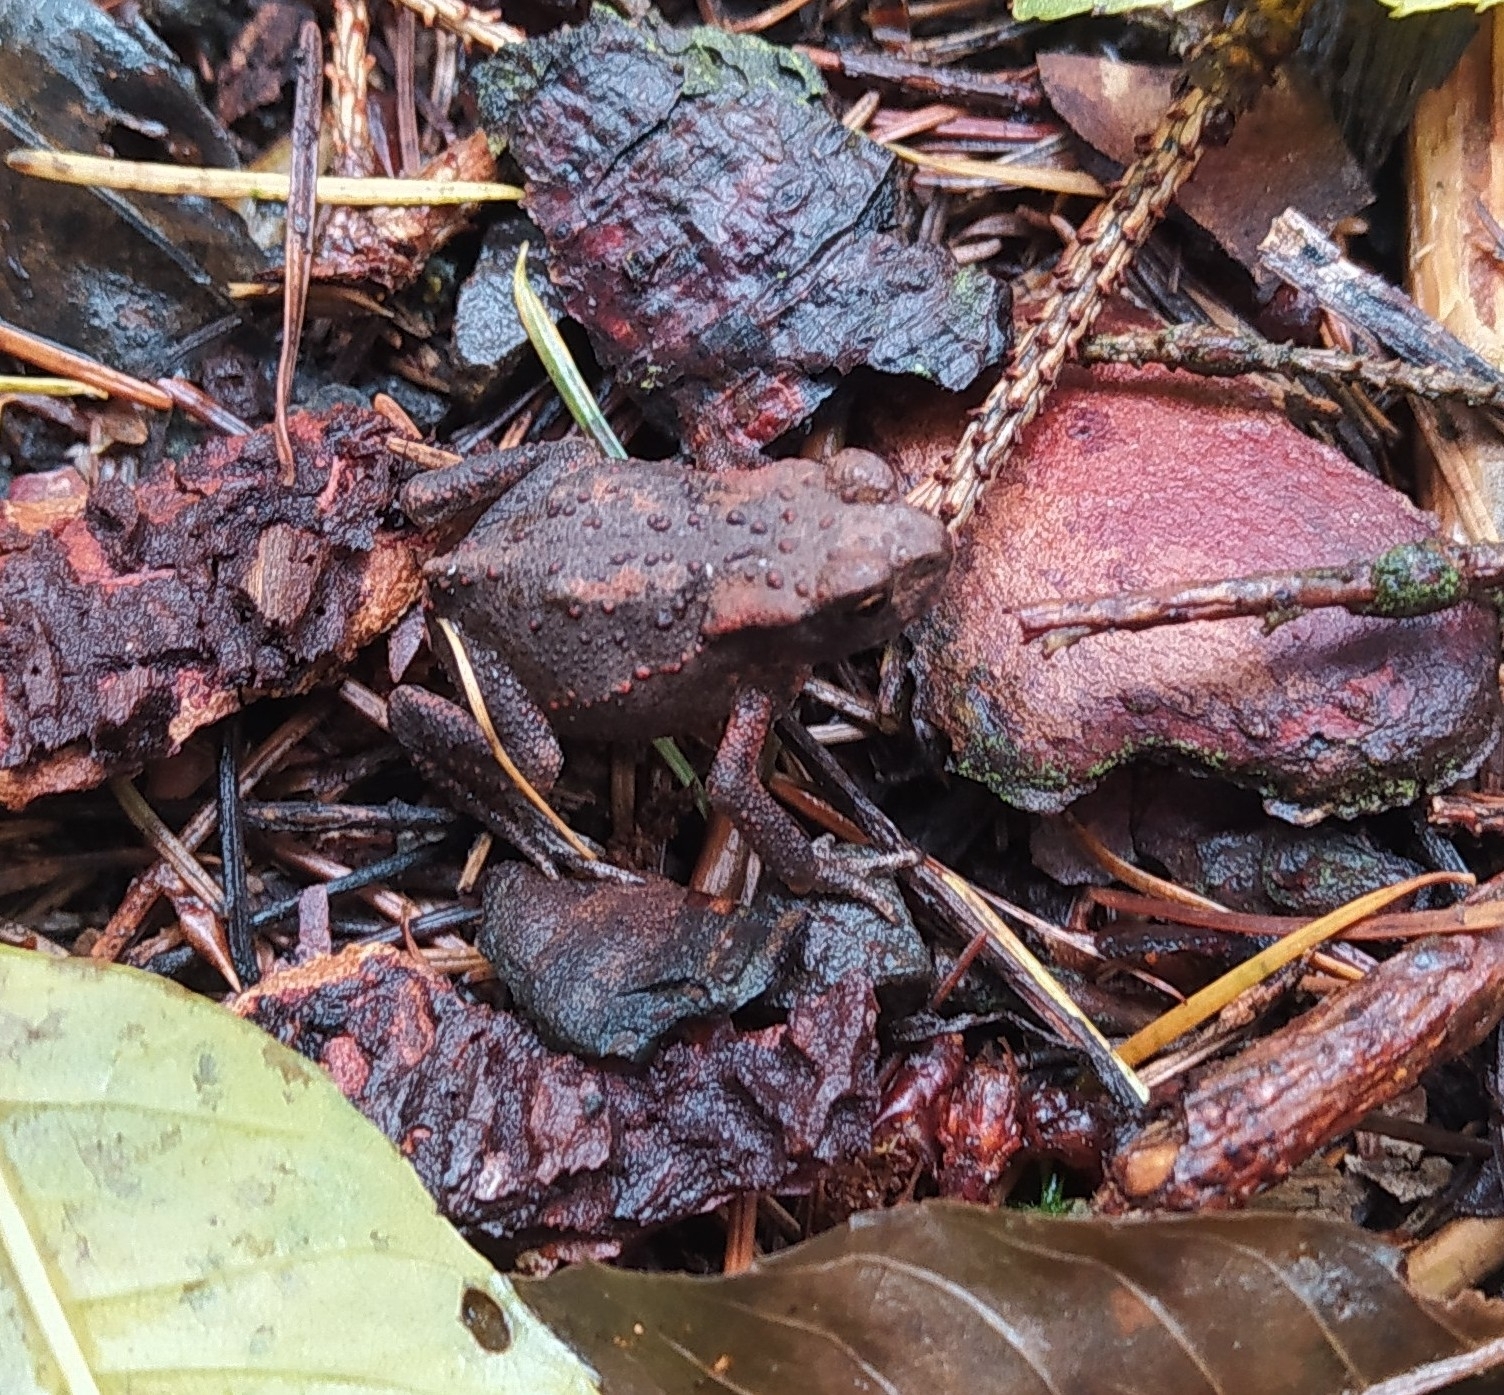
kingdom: Animalia
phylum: Chordata
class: Amphibia
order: Anura
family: Bufonidae
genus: Bufo
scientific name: Bufo bufo
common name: Common toad
